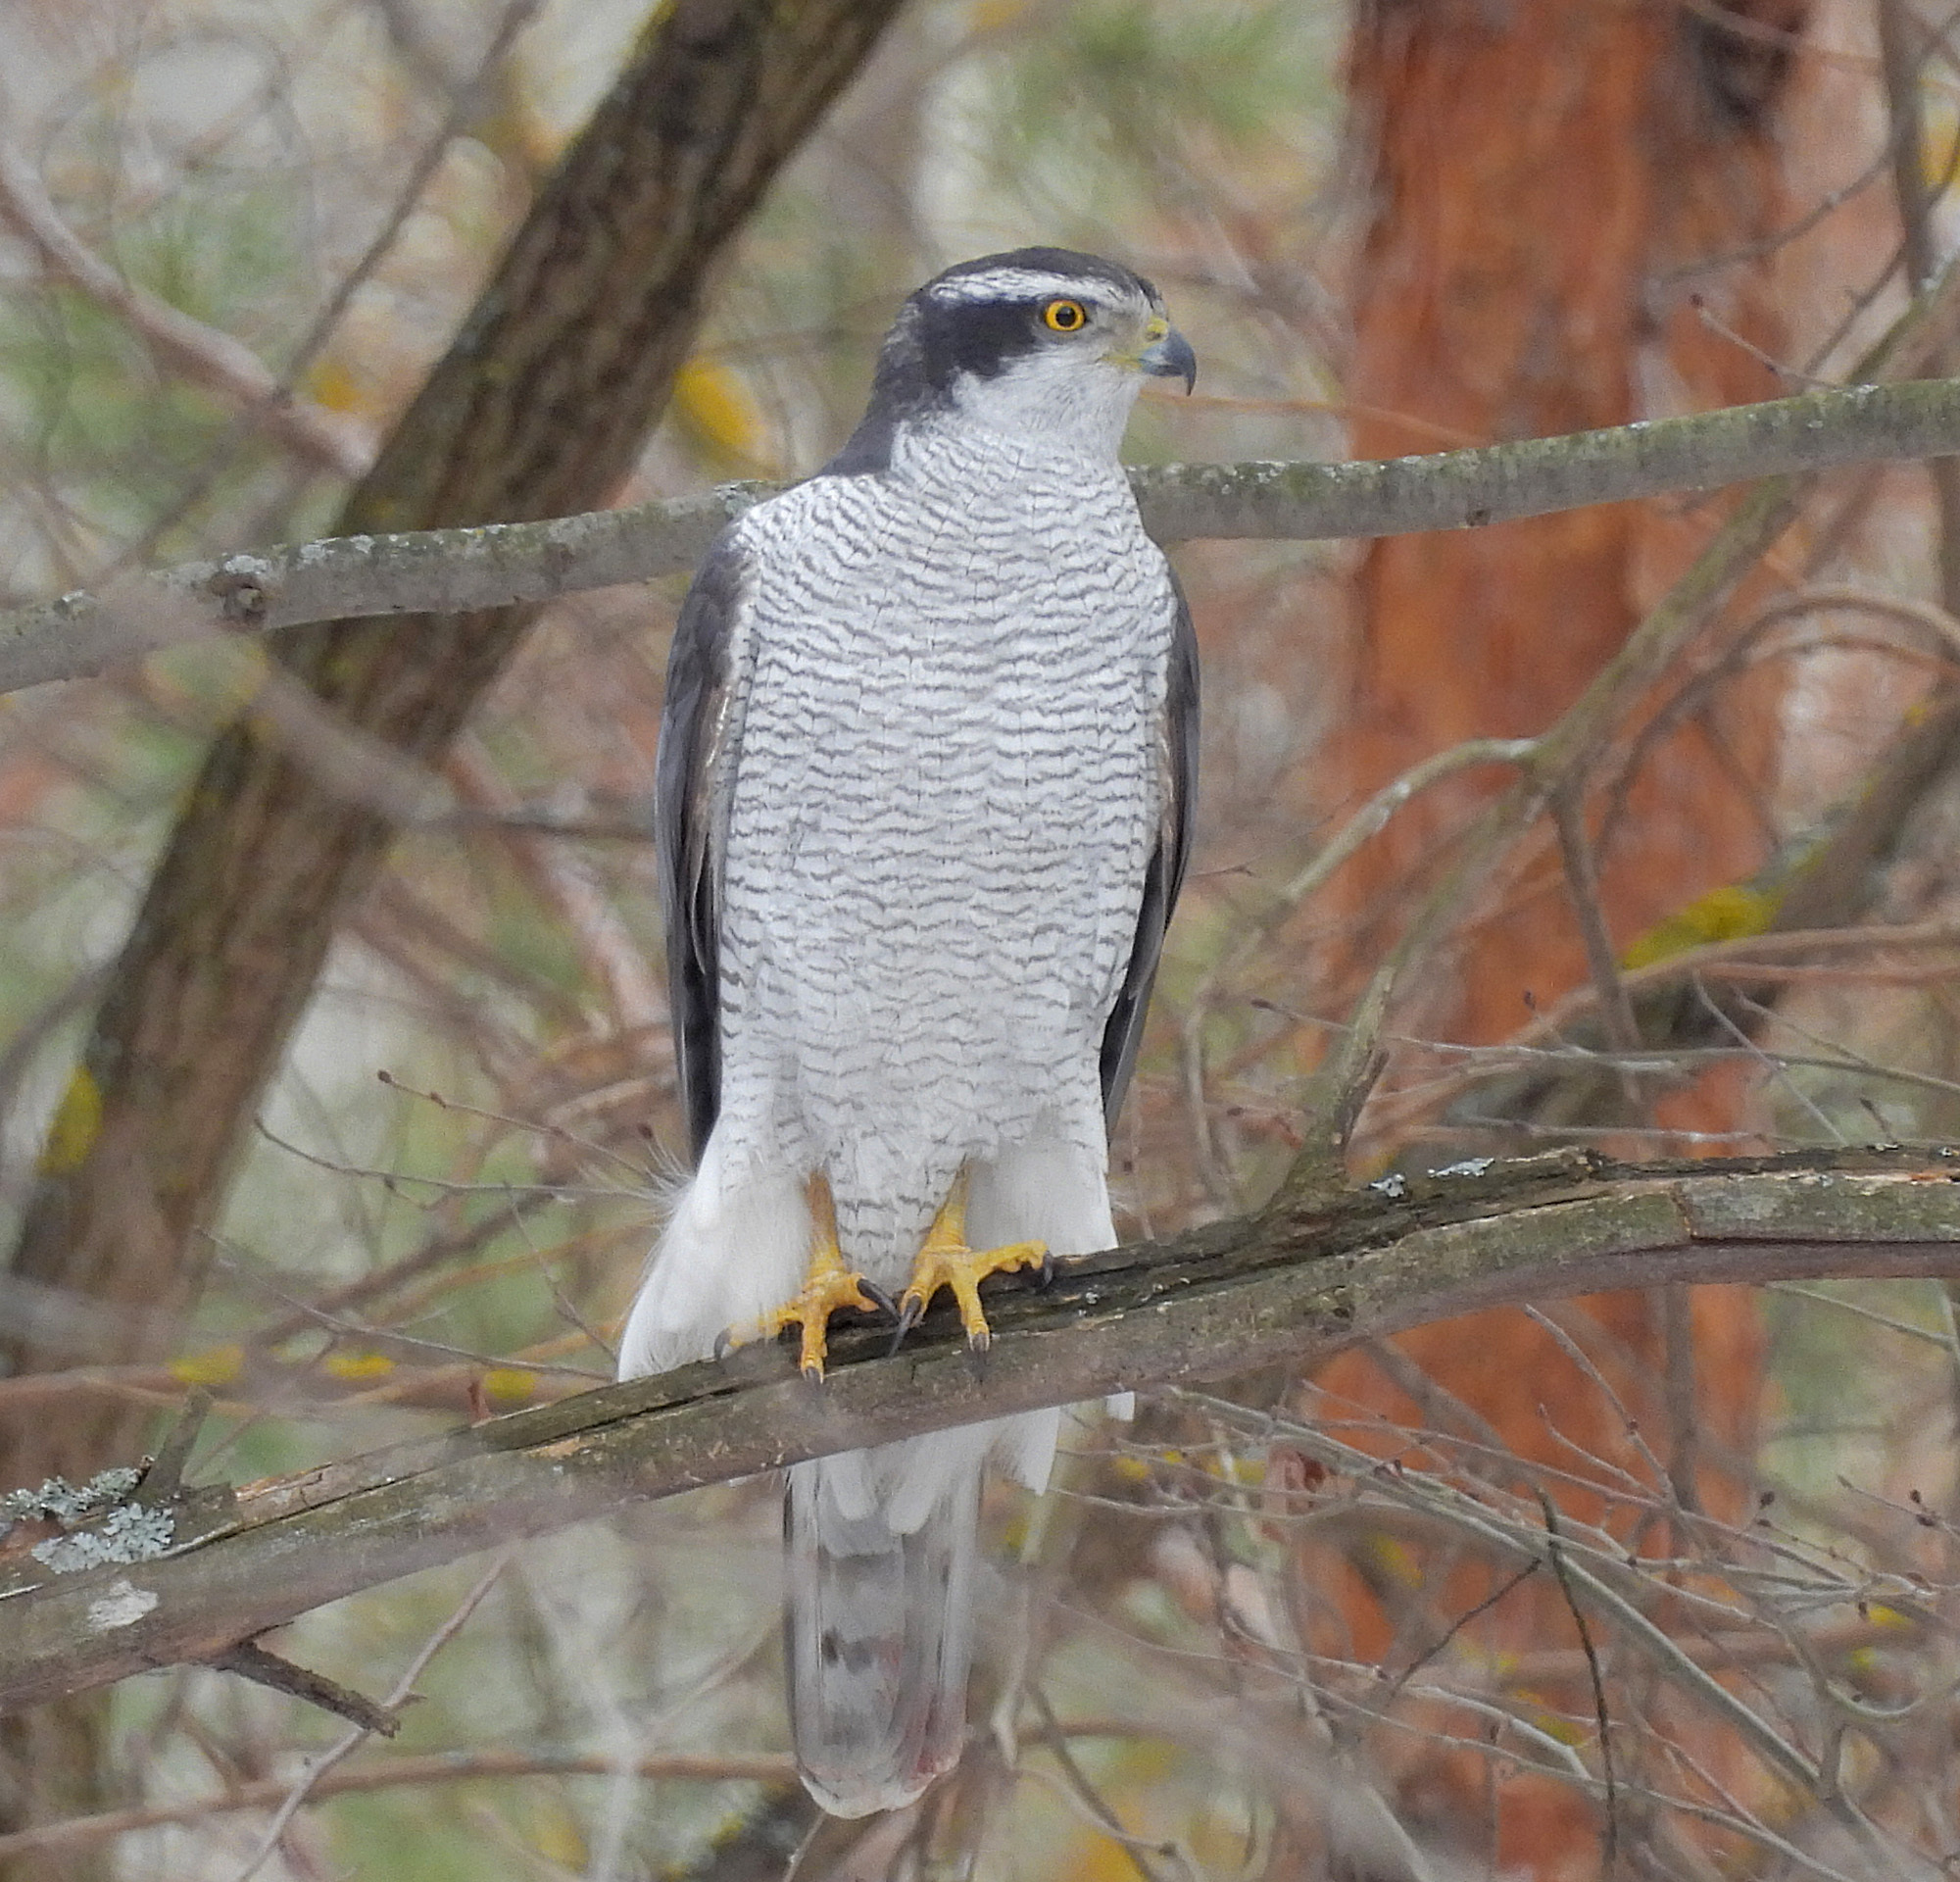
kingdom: Animalia
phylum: Chordata
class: Aves
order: Accipitriformes
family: Accipitridae
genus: Accipiter
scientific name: Accipiter gentilis
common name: Northern goshawk
